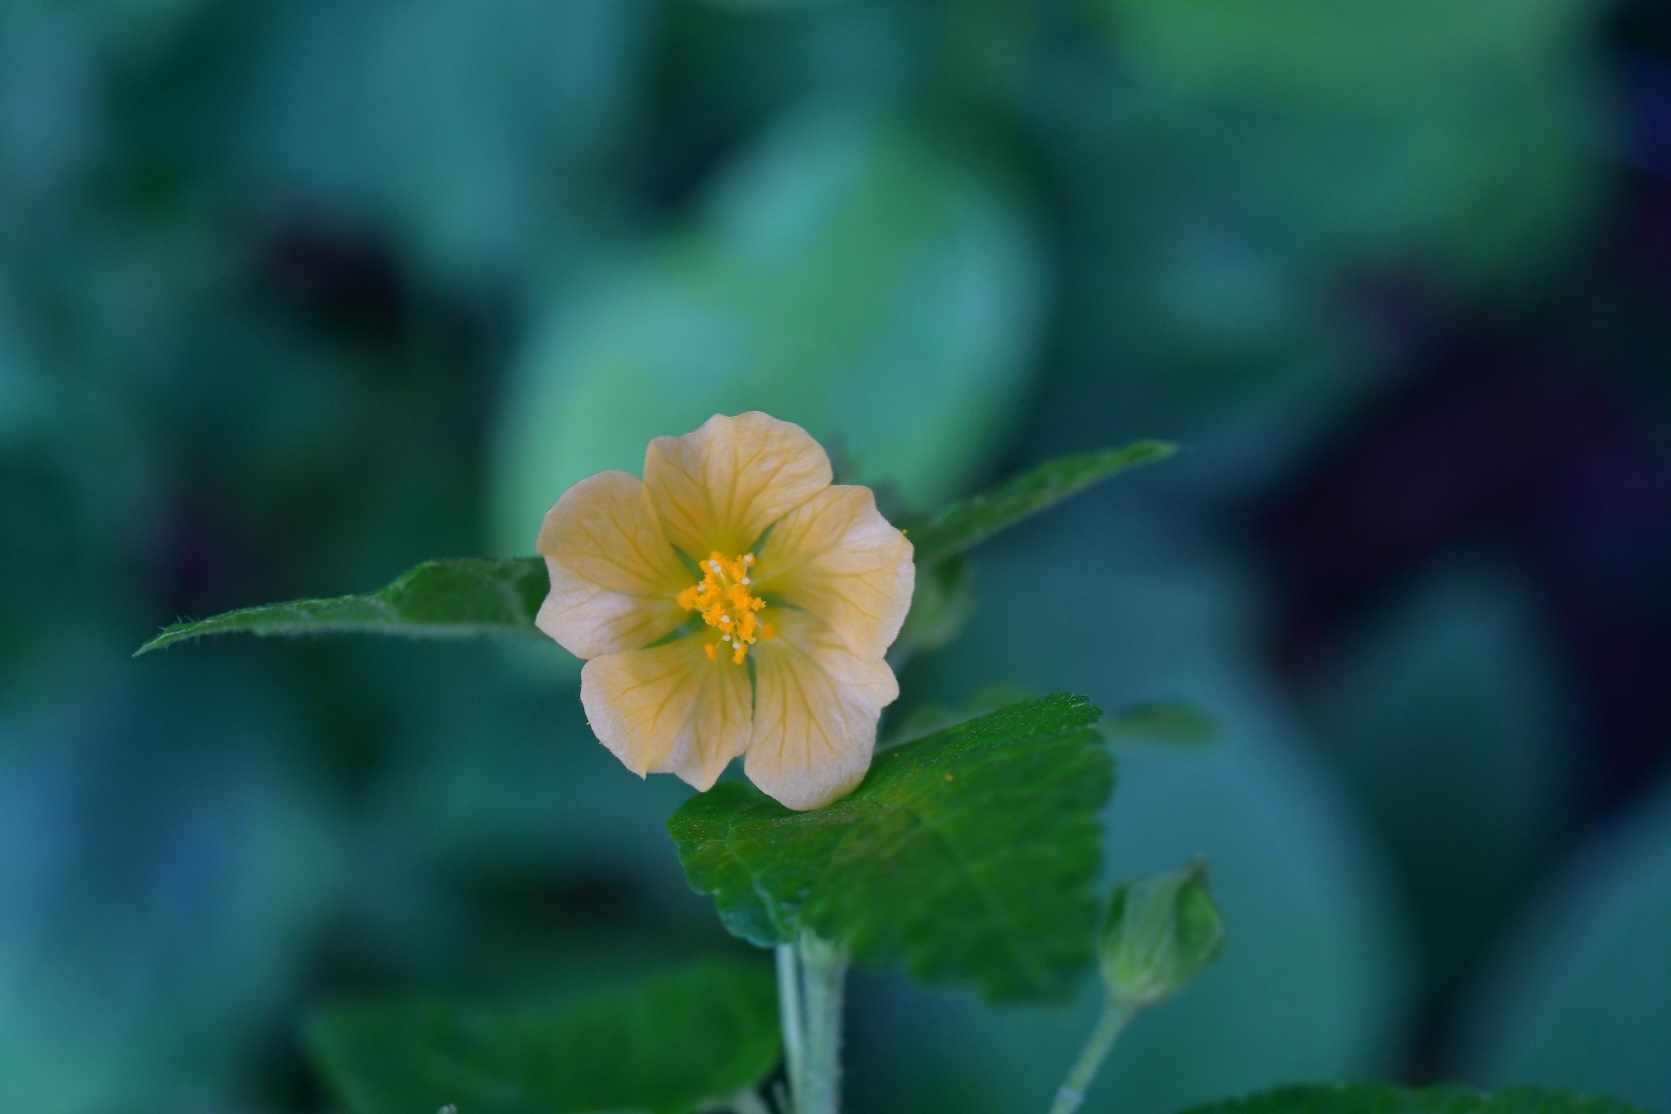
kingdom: Plantae
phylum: Tracheophyta
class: Magnoliopsida
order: Malvales
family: Malvaceae
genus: Sida
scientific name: Sida acuta
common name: Common wireweed
